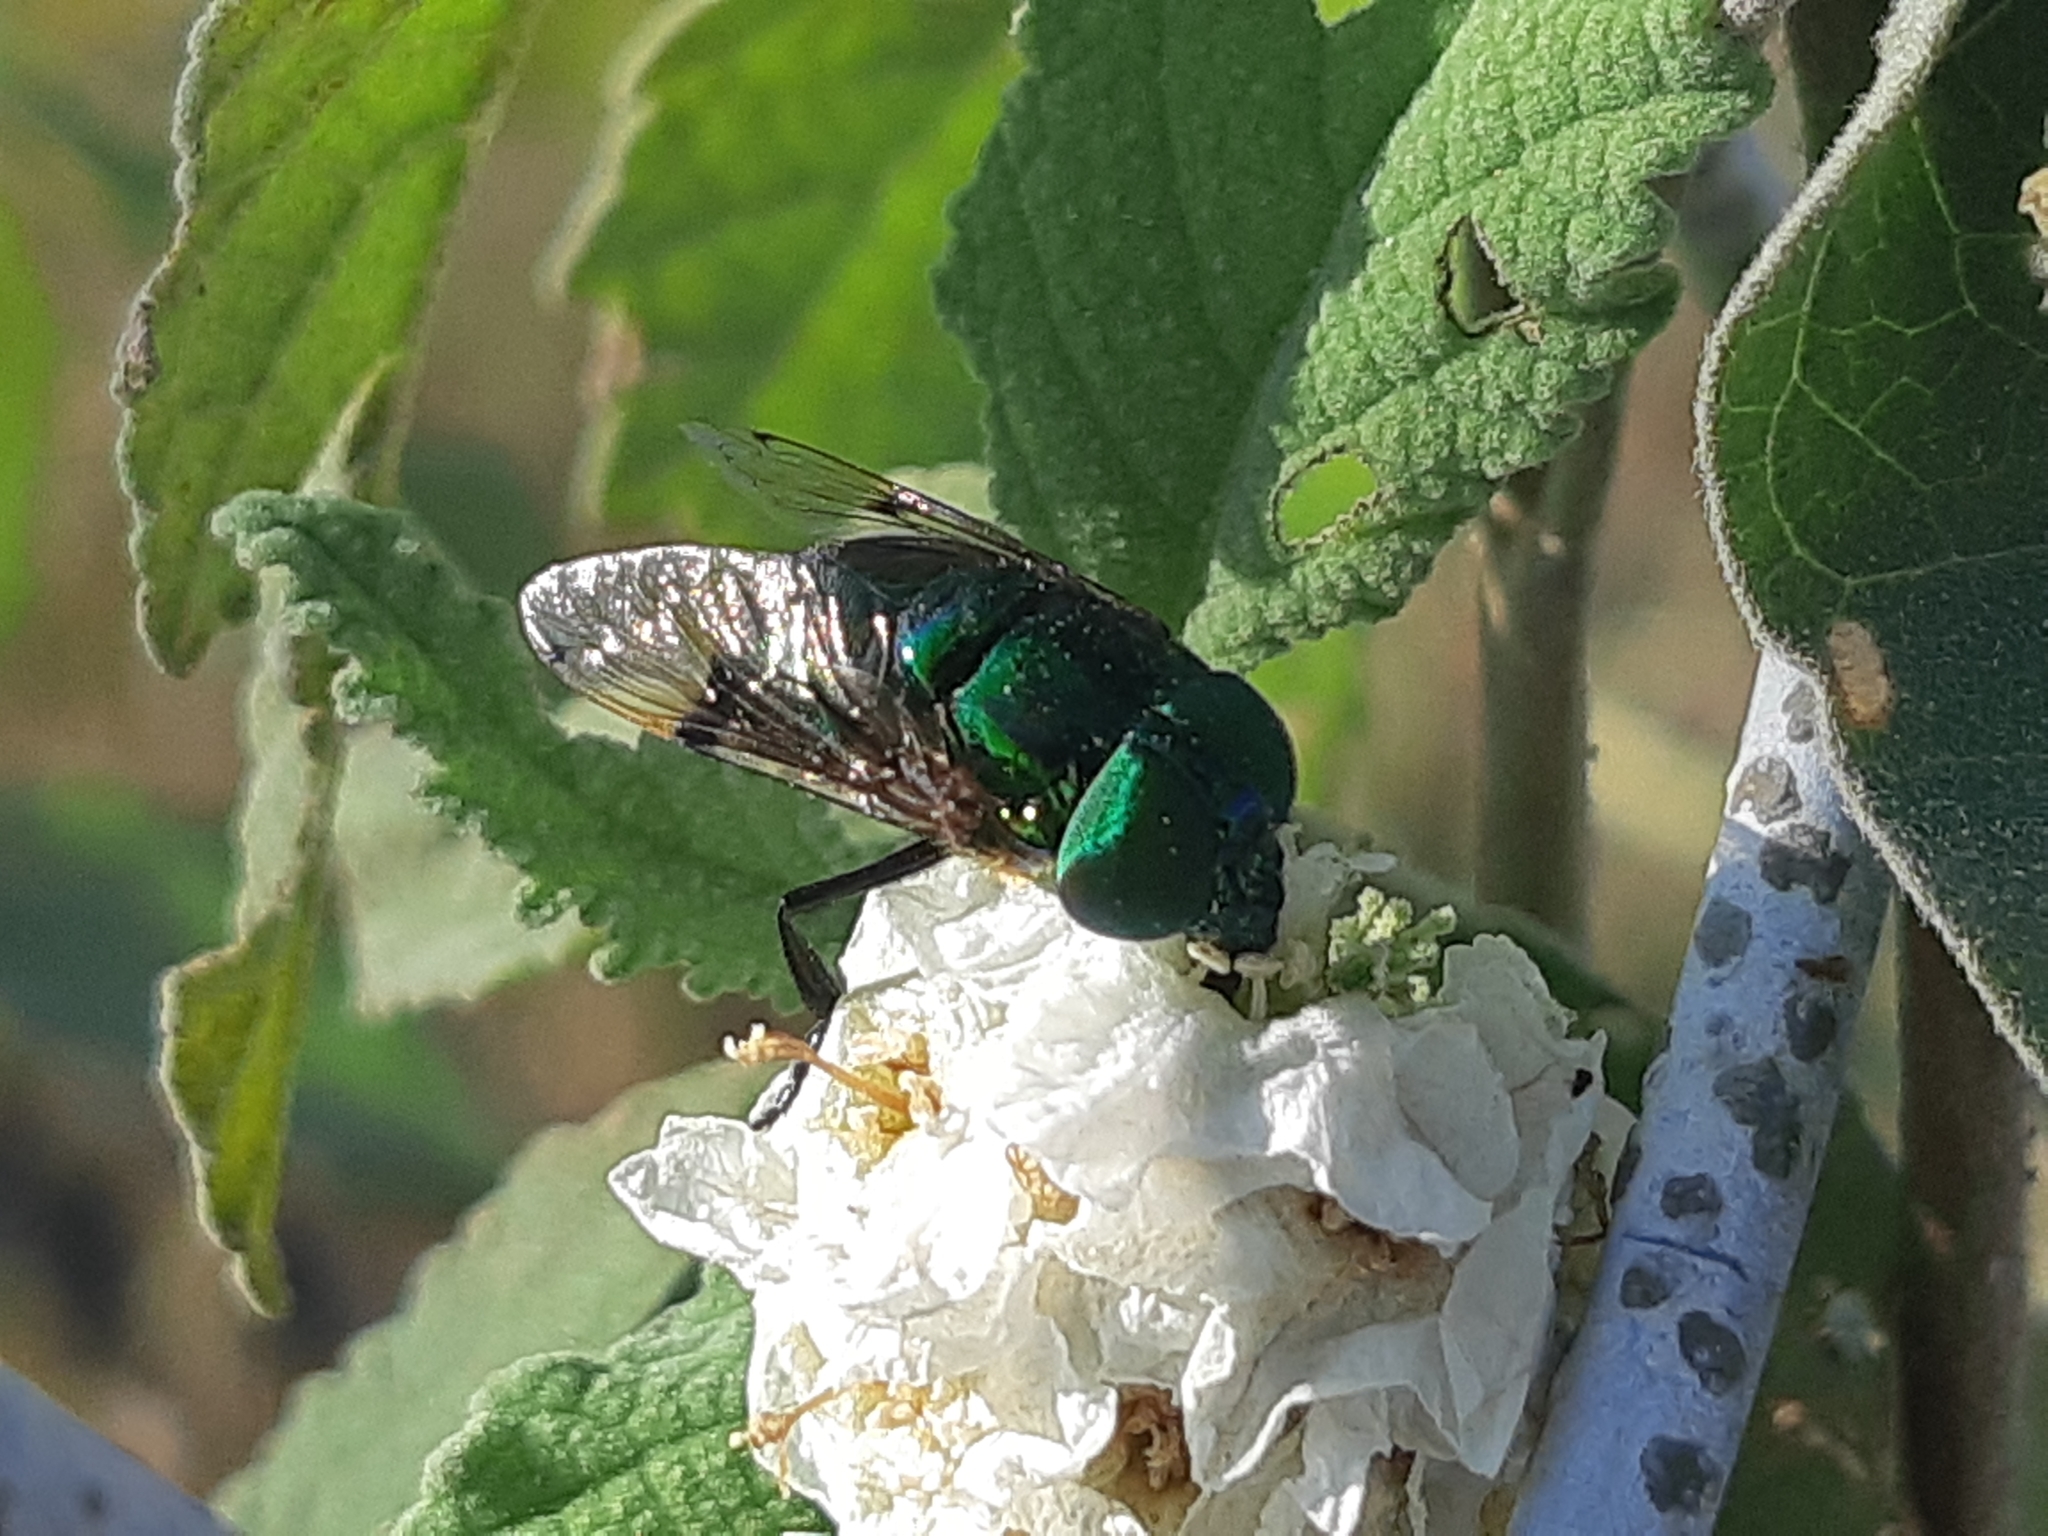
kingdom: Animalia
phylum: Arthropoda
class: Insecta
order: Diptera
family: Syrphidae
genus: Ornidia
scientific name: Ornidia obesa
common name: Syrphid fly
